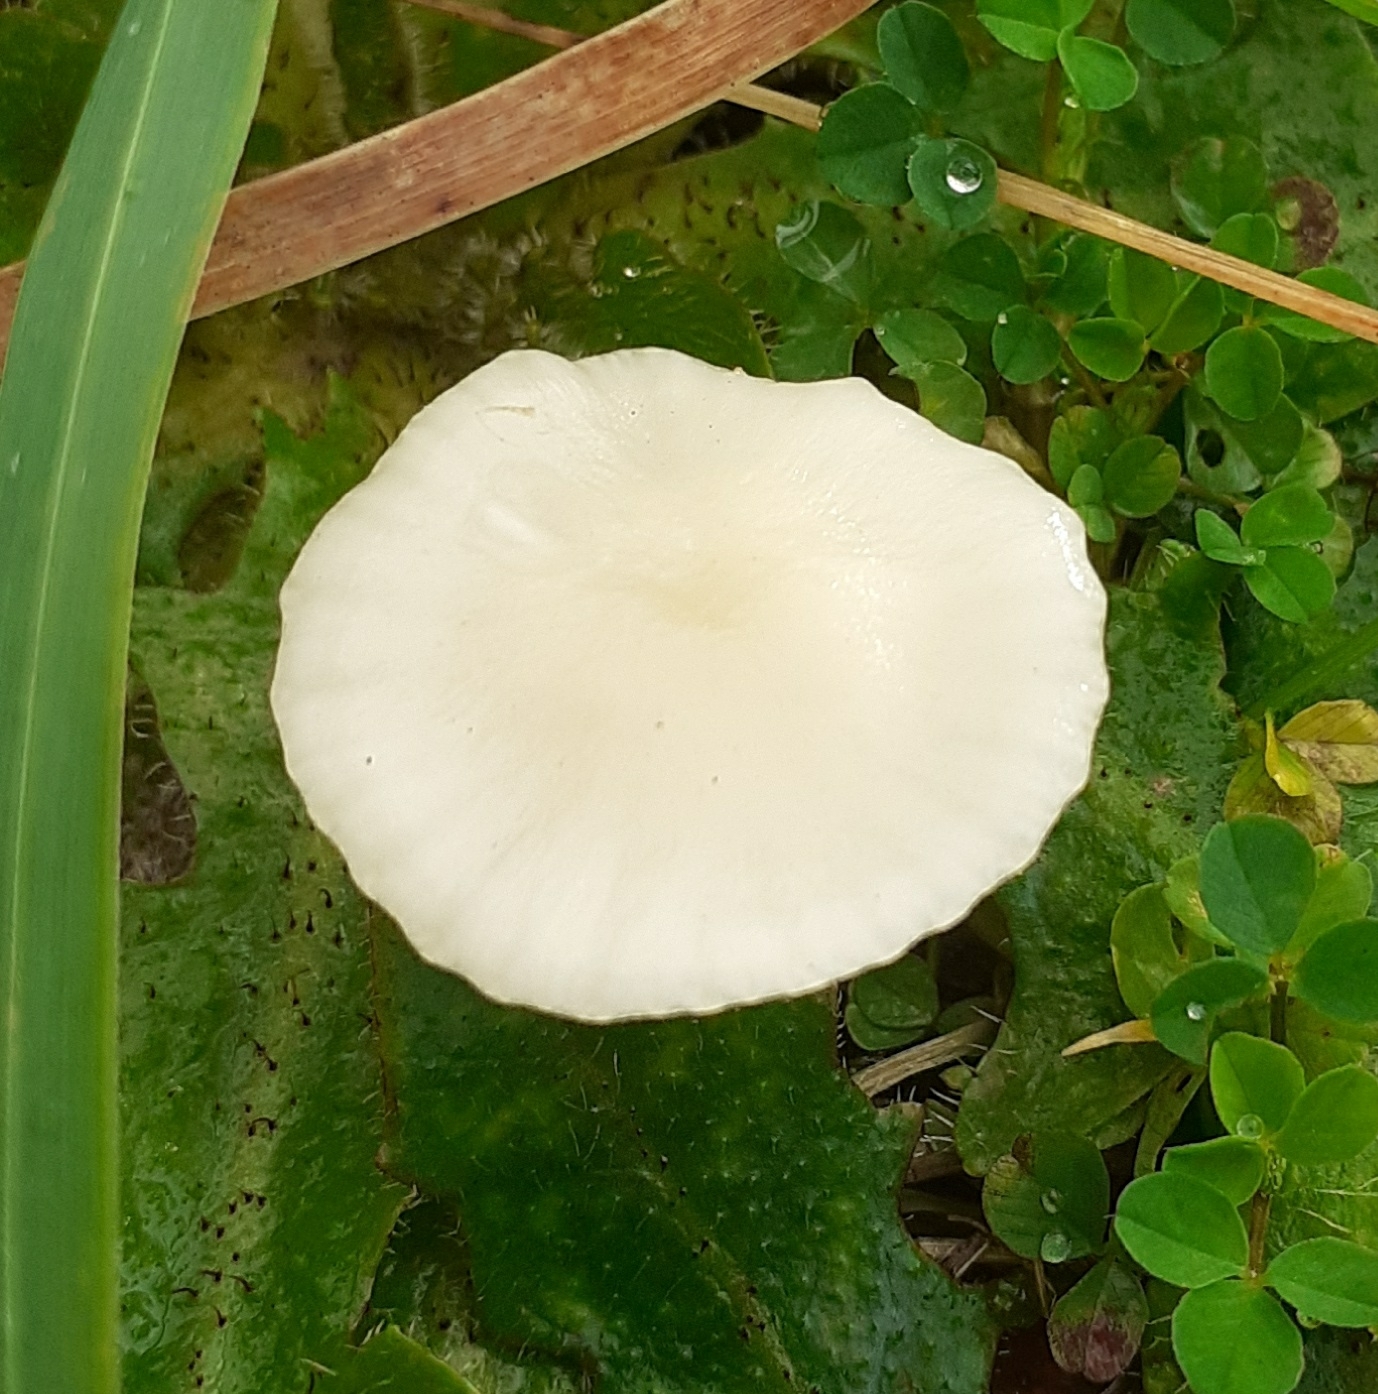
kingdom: Fungi
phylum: Basidiomycota
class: Agaricomycetes
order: Agaricales
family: Hygrophoraceae
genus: Cuphophyllus
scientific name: Cuphophyllus virgineus
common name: Snowy waxcap
